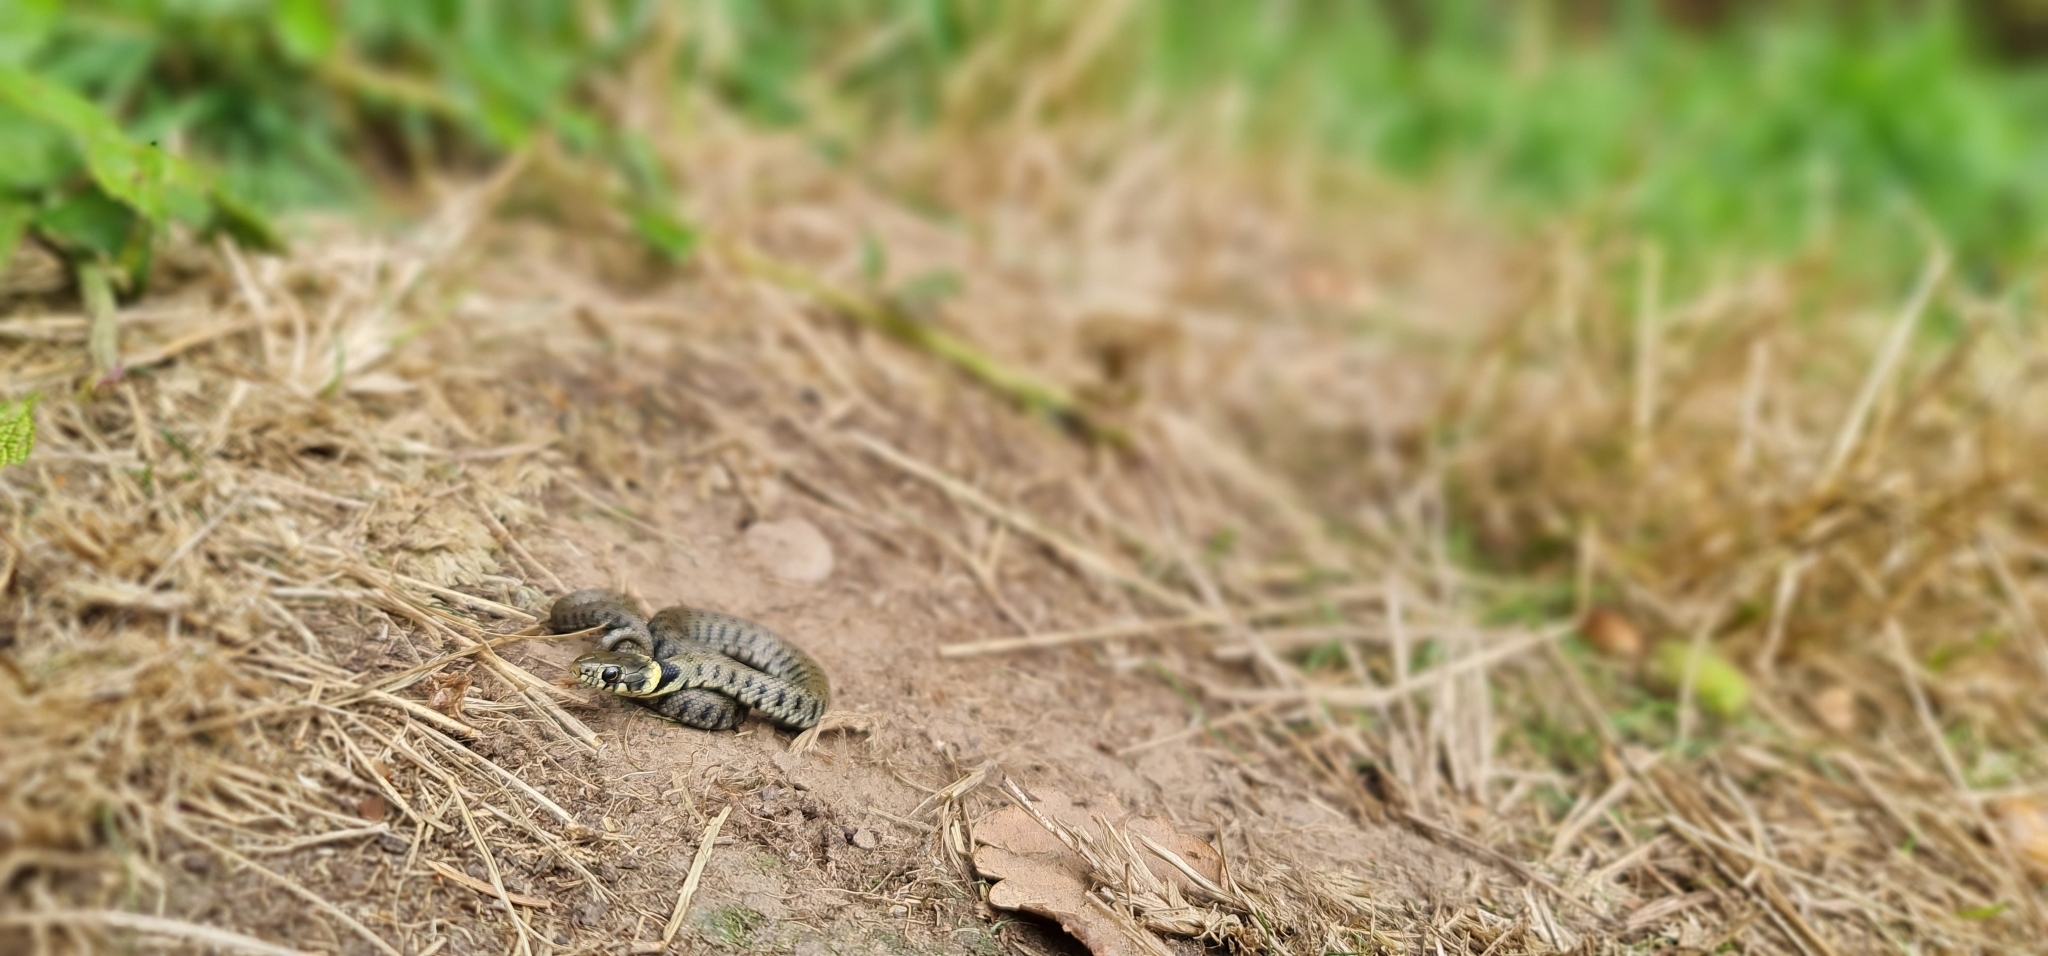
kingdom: Animalia
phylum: Chordata
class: Squamata
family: Colubridae
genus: Natrix
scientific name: Natrix helvetica
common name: Banded grass snake
